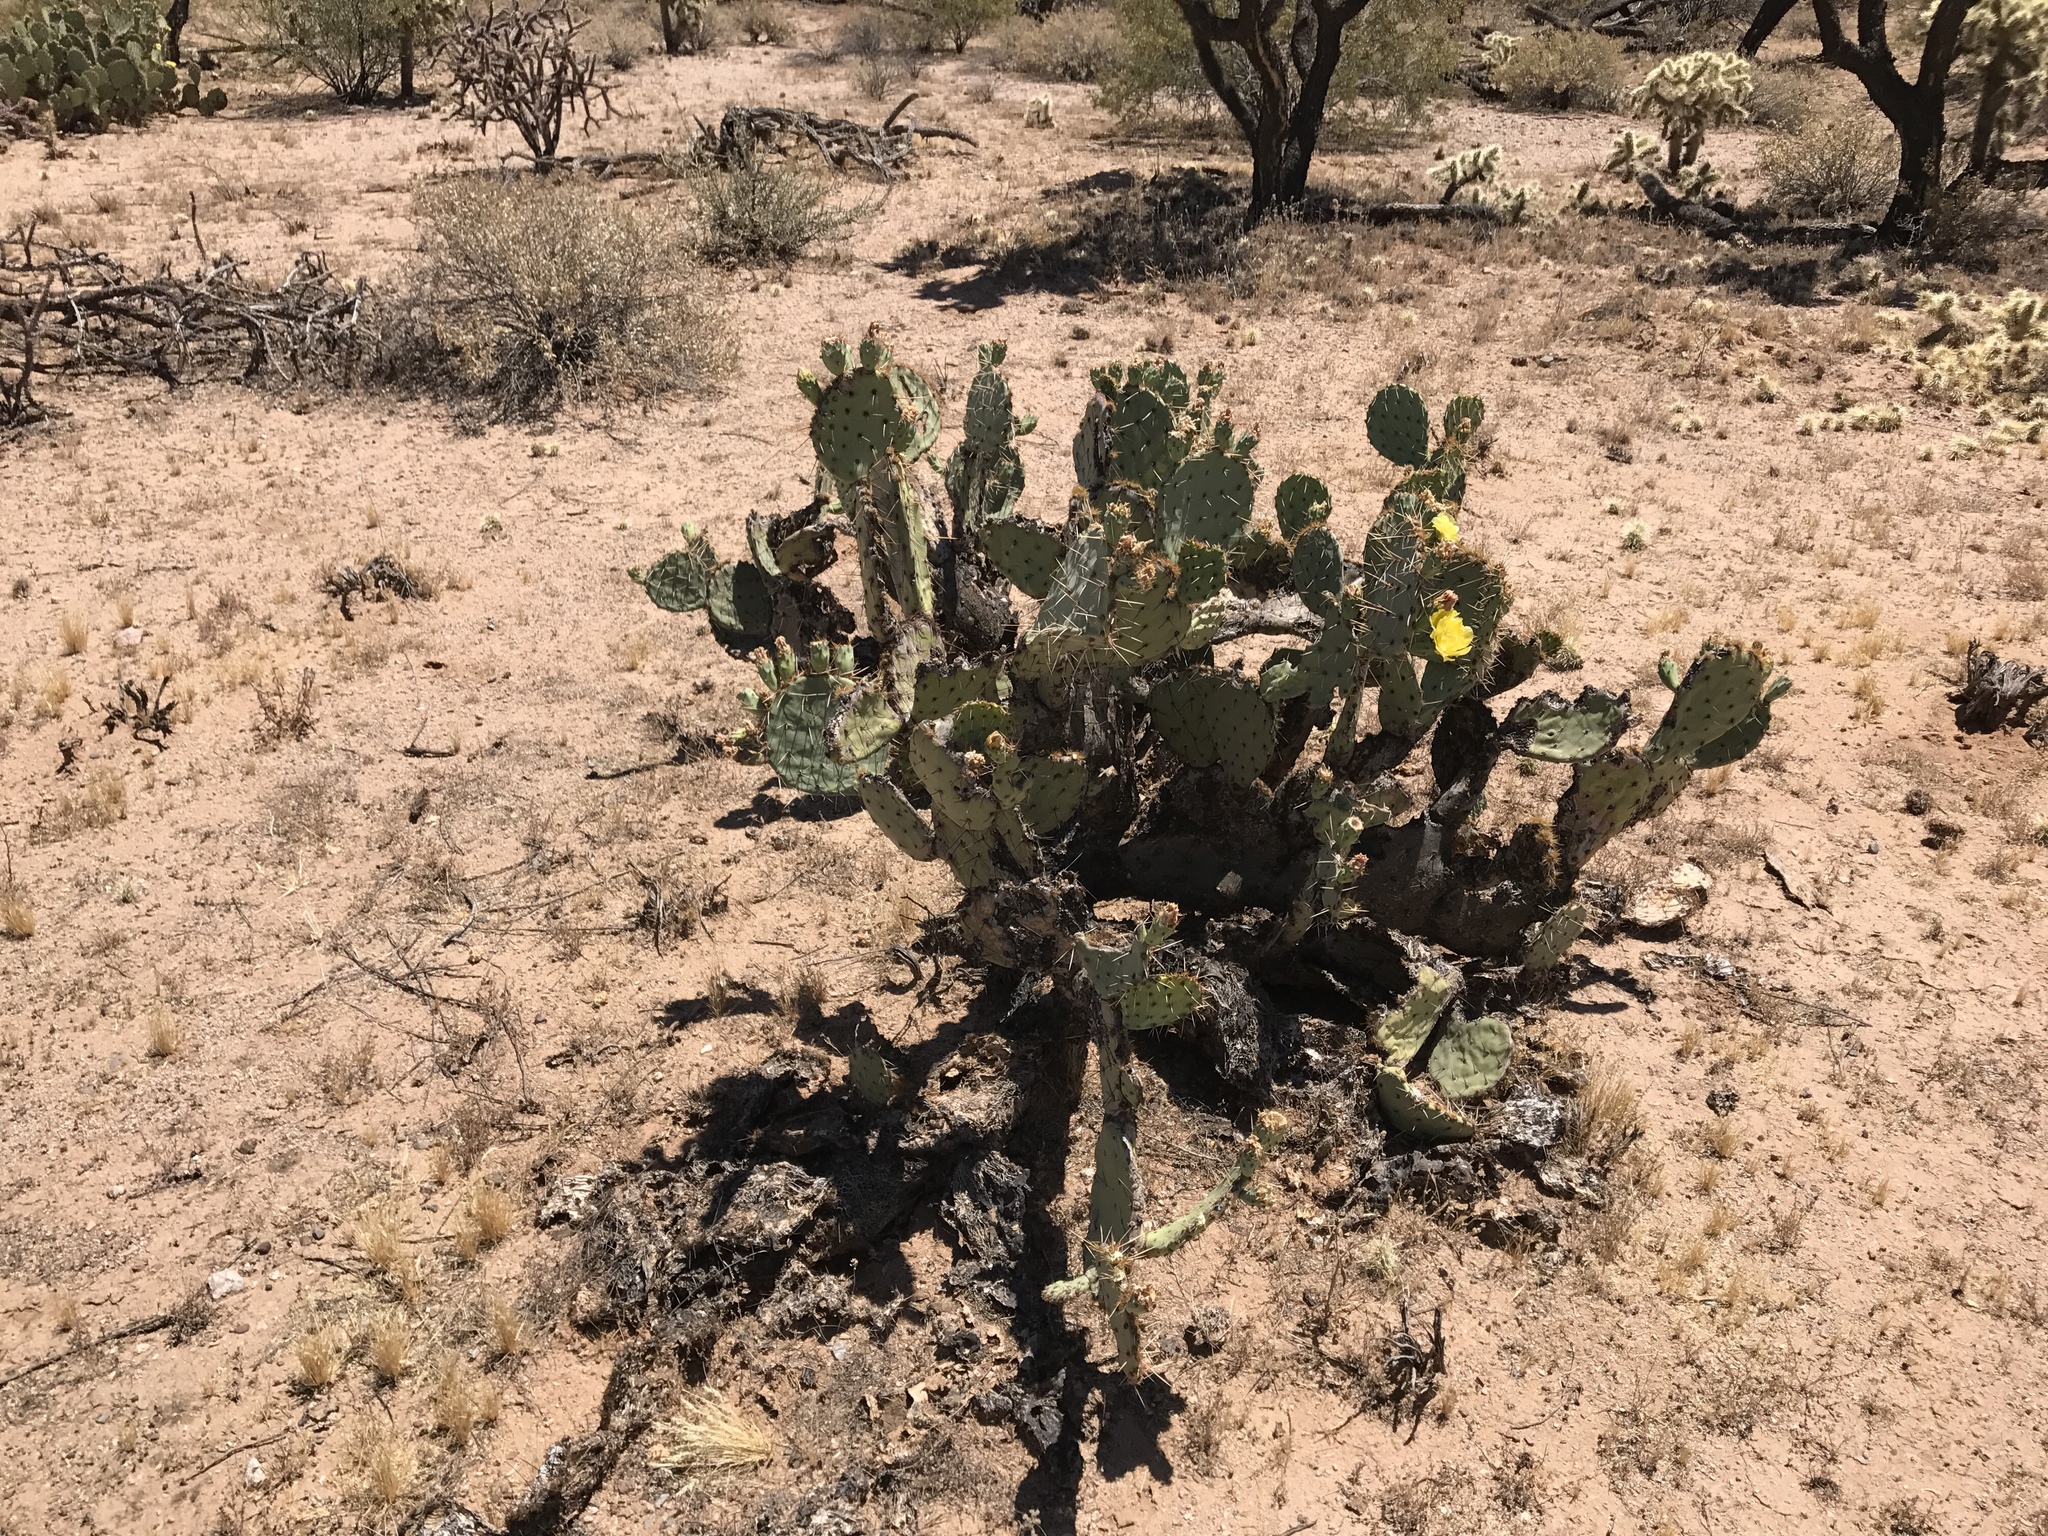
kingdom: Plantae
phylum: Tracheophyta
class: Magnoliopsida
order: Caryophyllales
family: Cactaceae
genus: Opuntia
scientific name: Opuntia engelmannii
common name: Cactus-apple
